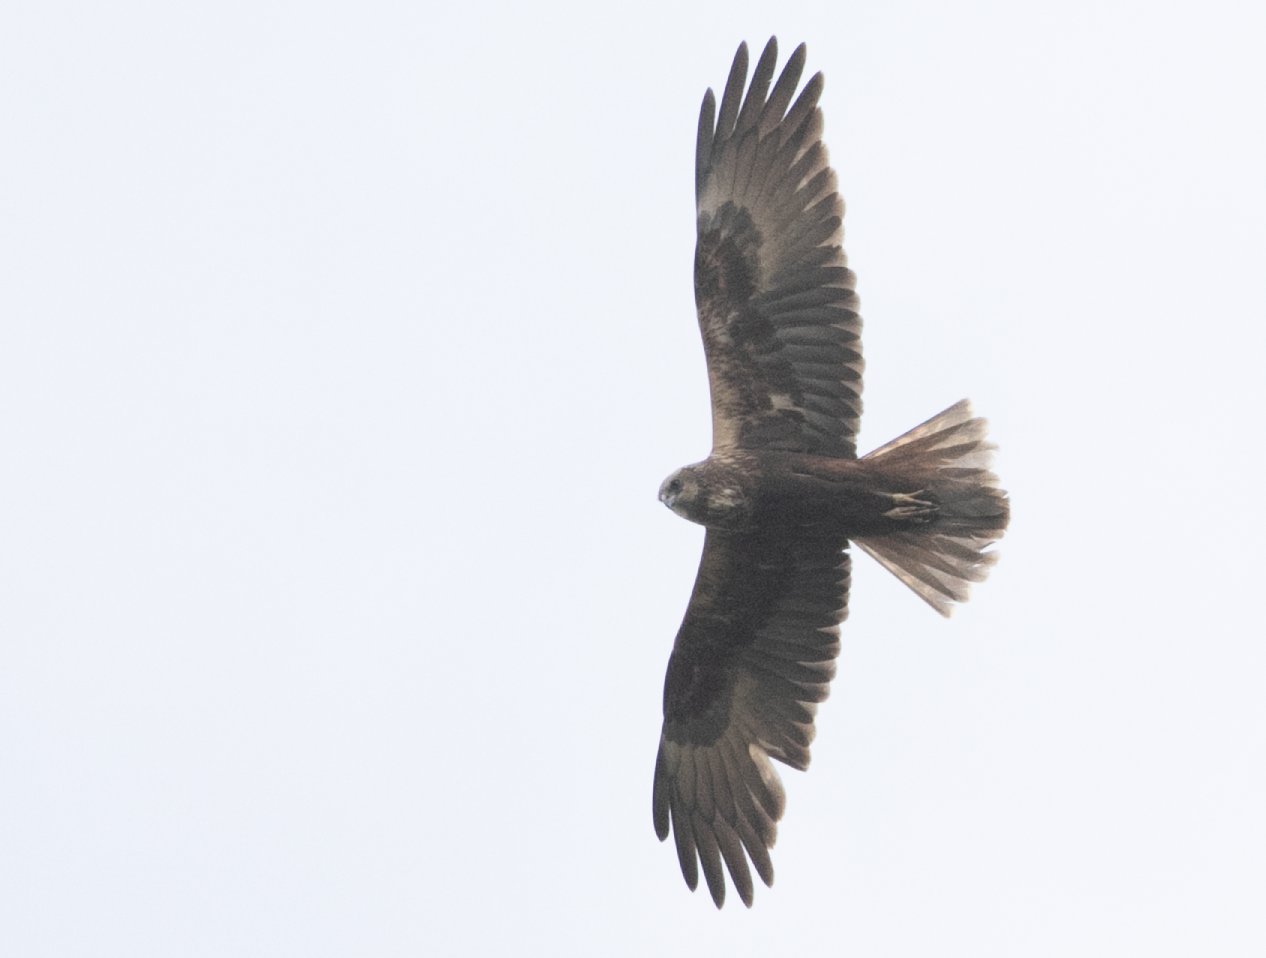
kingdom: Animalia
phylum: Chordata
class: Aves
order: Accipitriformes
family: Accipitridae
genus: Circus
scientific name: Circus aeruginosus
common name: Western marsh harrier
